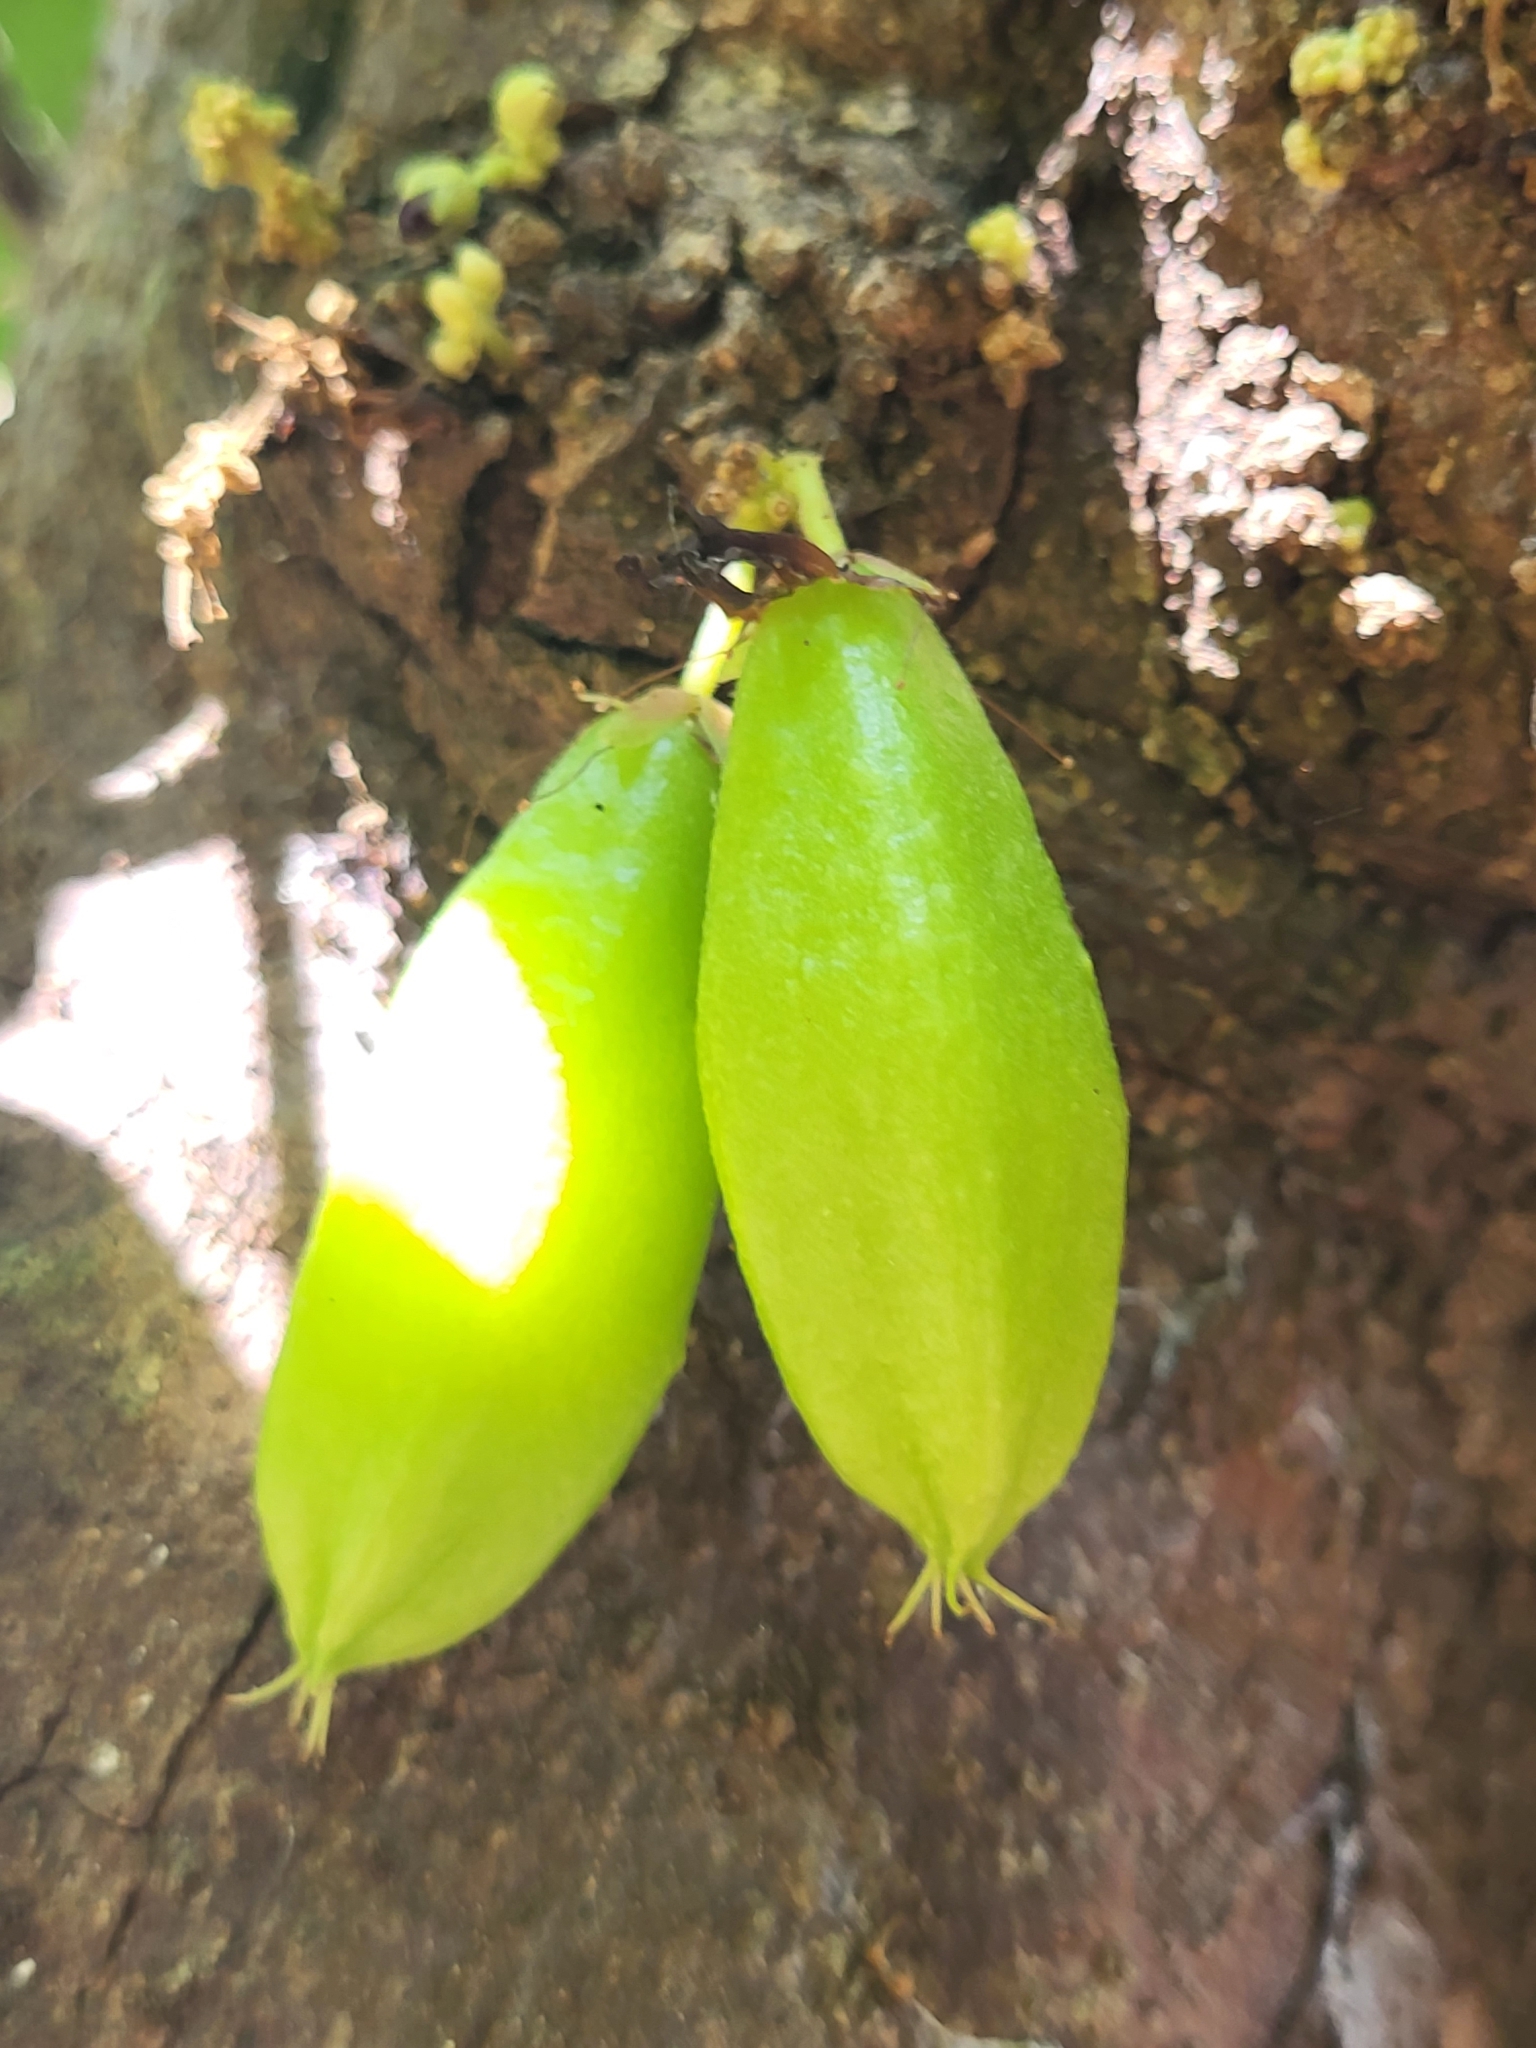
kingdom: Plantae
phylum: Tracheophyta
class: Magnoliopsida
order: Oxalidales
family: Oxalidaceae
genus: Averrhoa
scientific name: Averrhoa bilimbi
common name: Bilimbi
